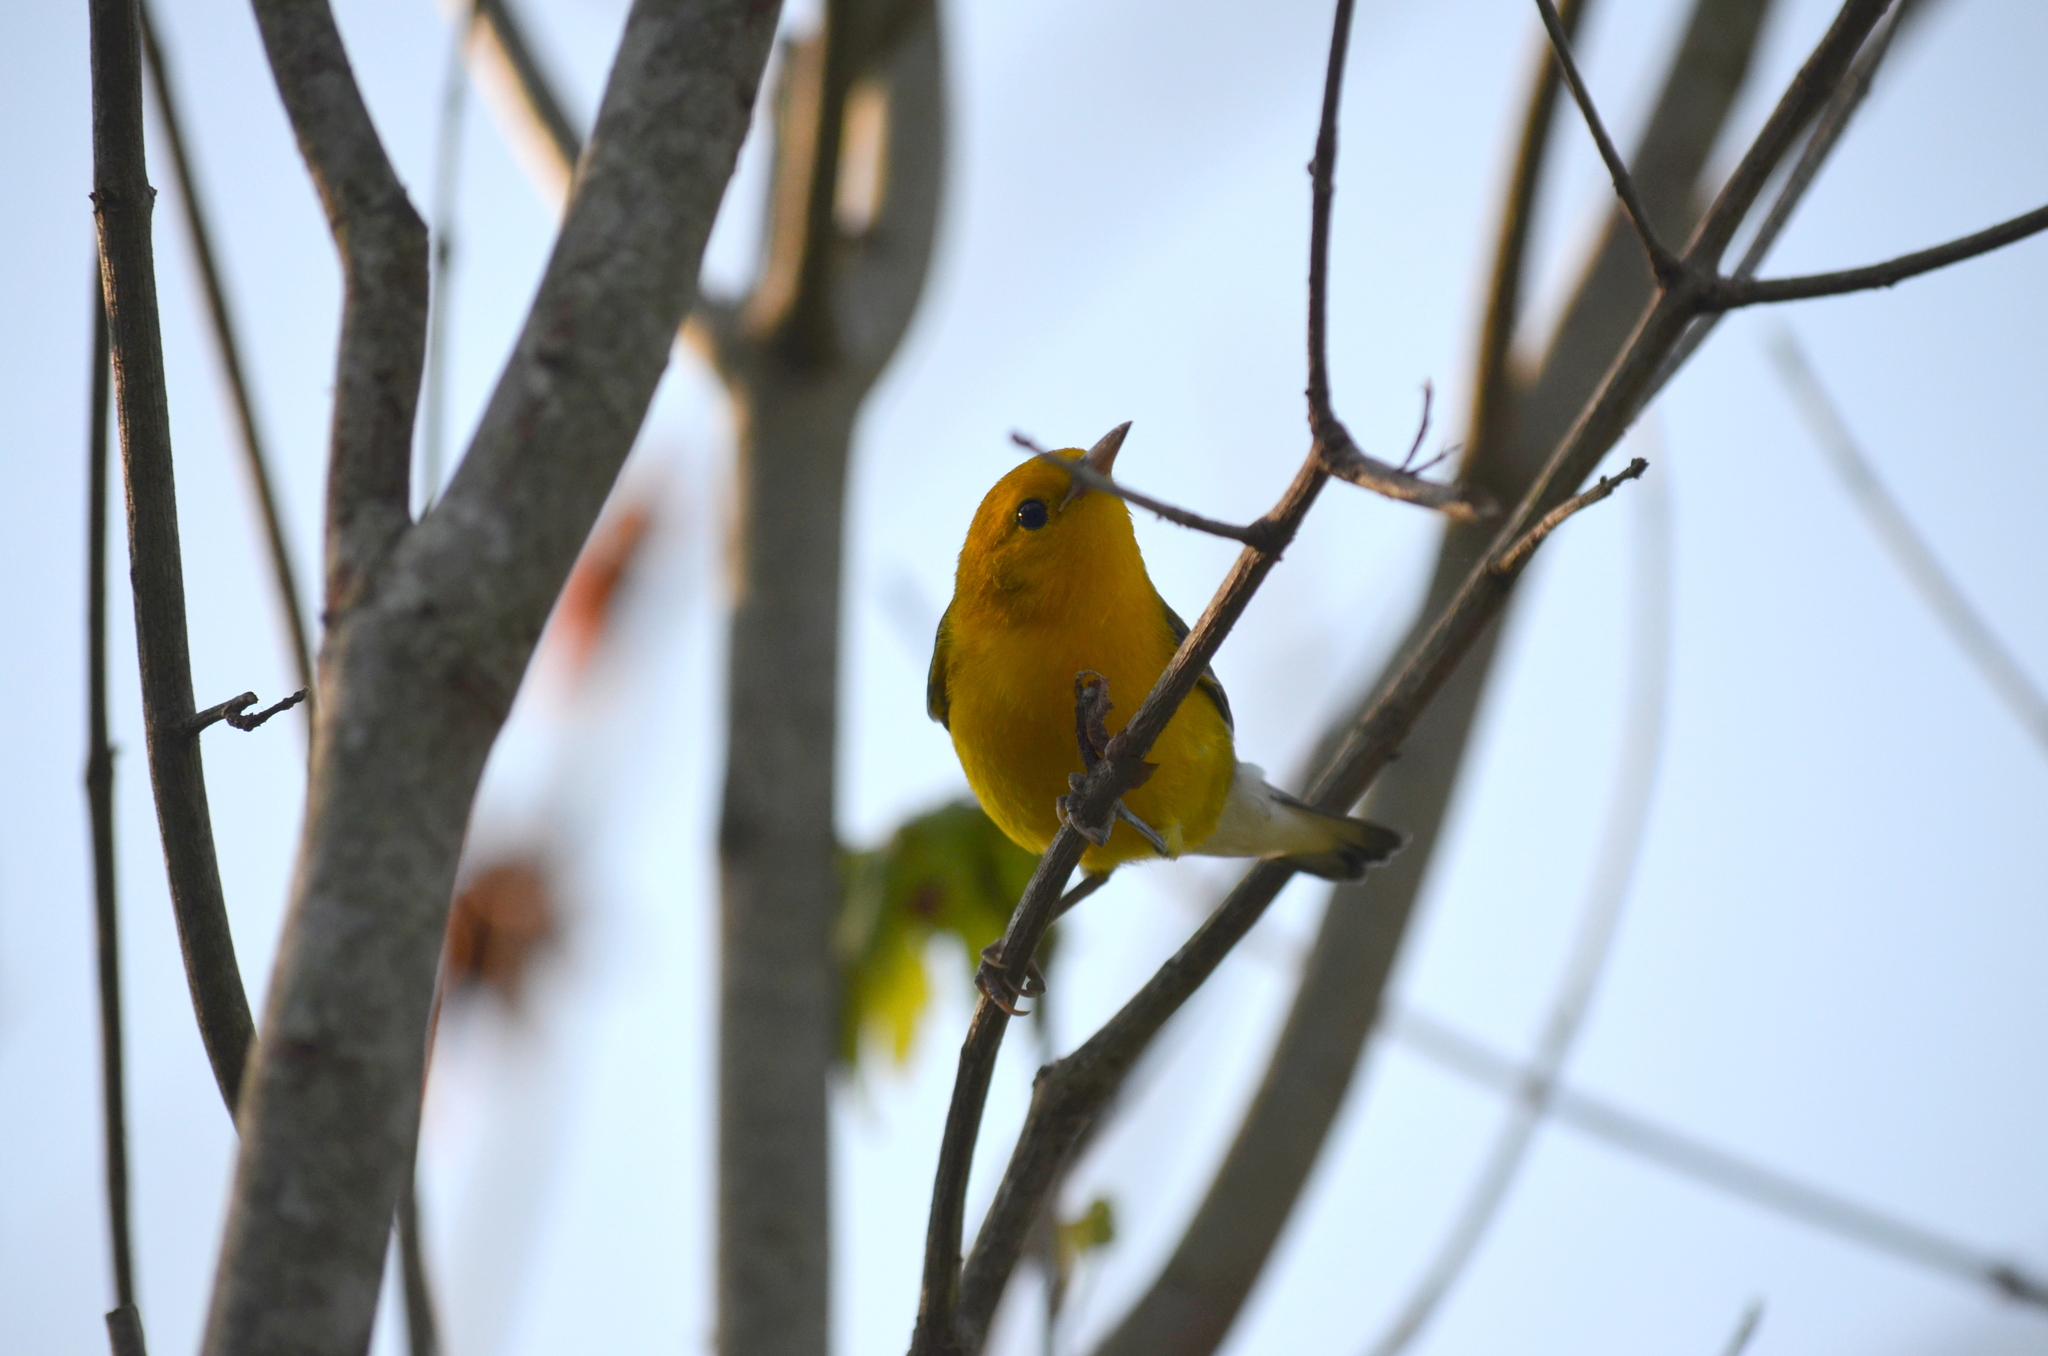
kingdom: Animalia
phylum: Chordata
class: Aves
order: Passeriformes
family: Parulidae
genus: Protonotaria
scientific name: Protonotaria citrea
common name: Prothonotary warbler
